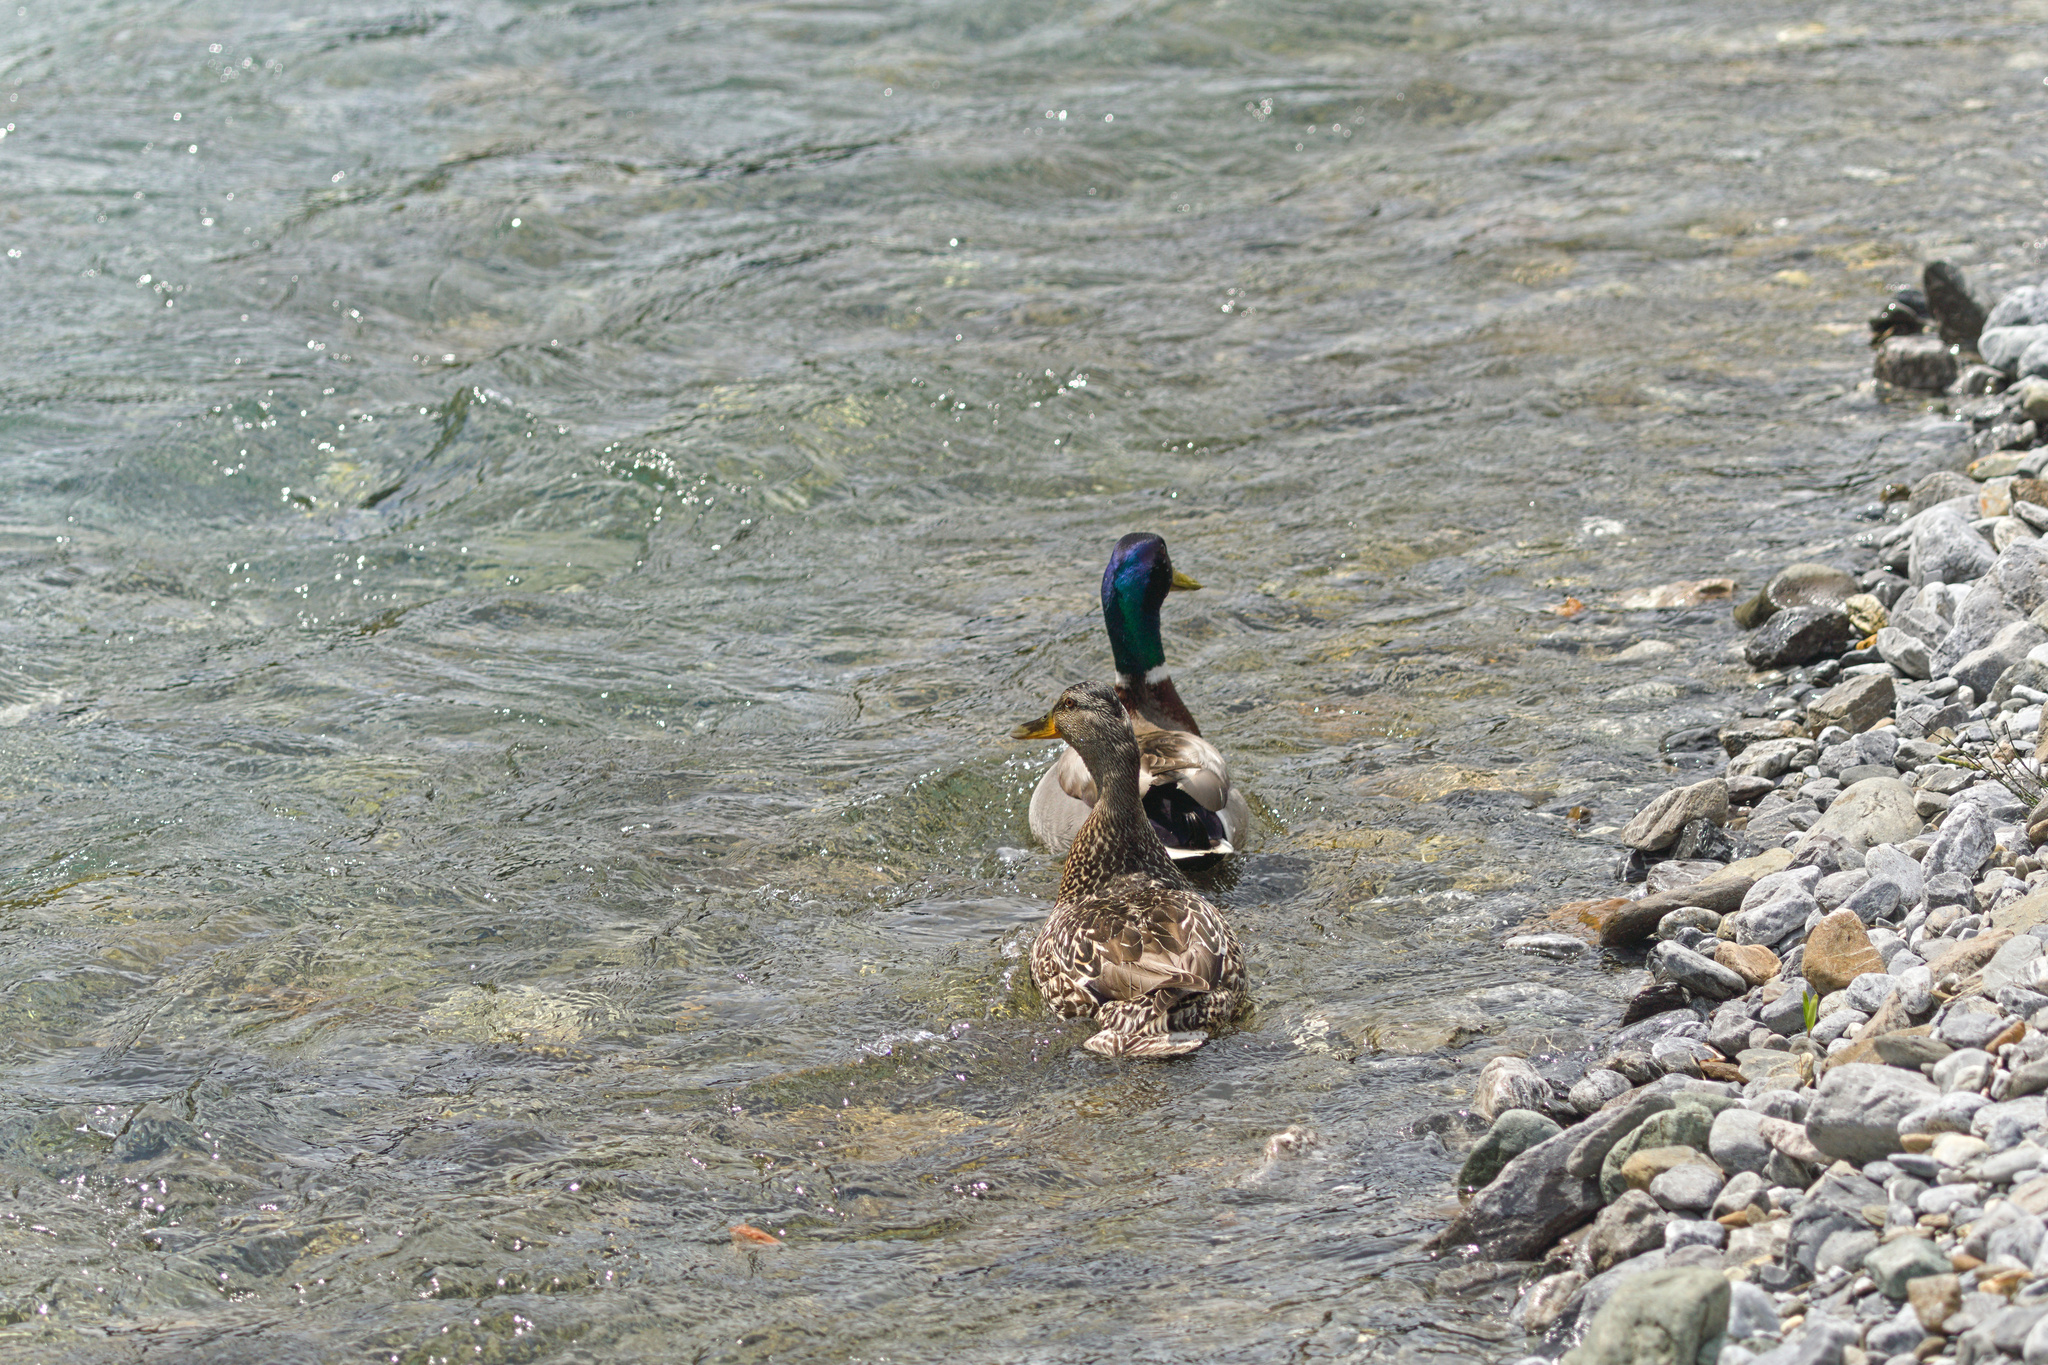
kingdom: Animalia
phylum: Chordata
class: Aves
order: Anseriformes
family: Anatidae
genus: Anas
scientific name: Anas platyrhynchos
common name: Mallard
